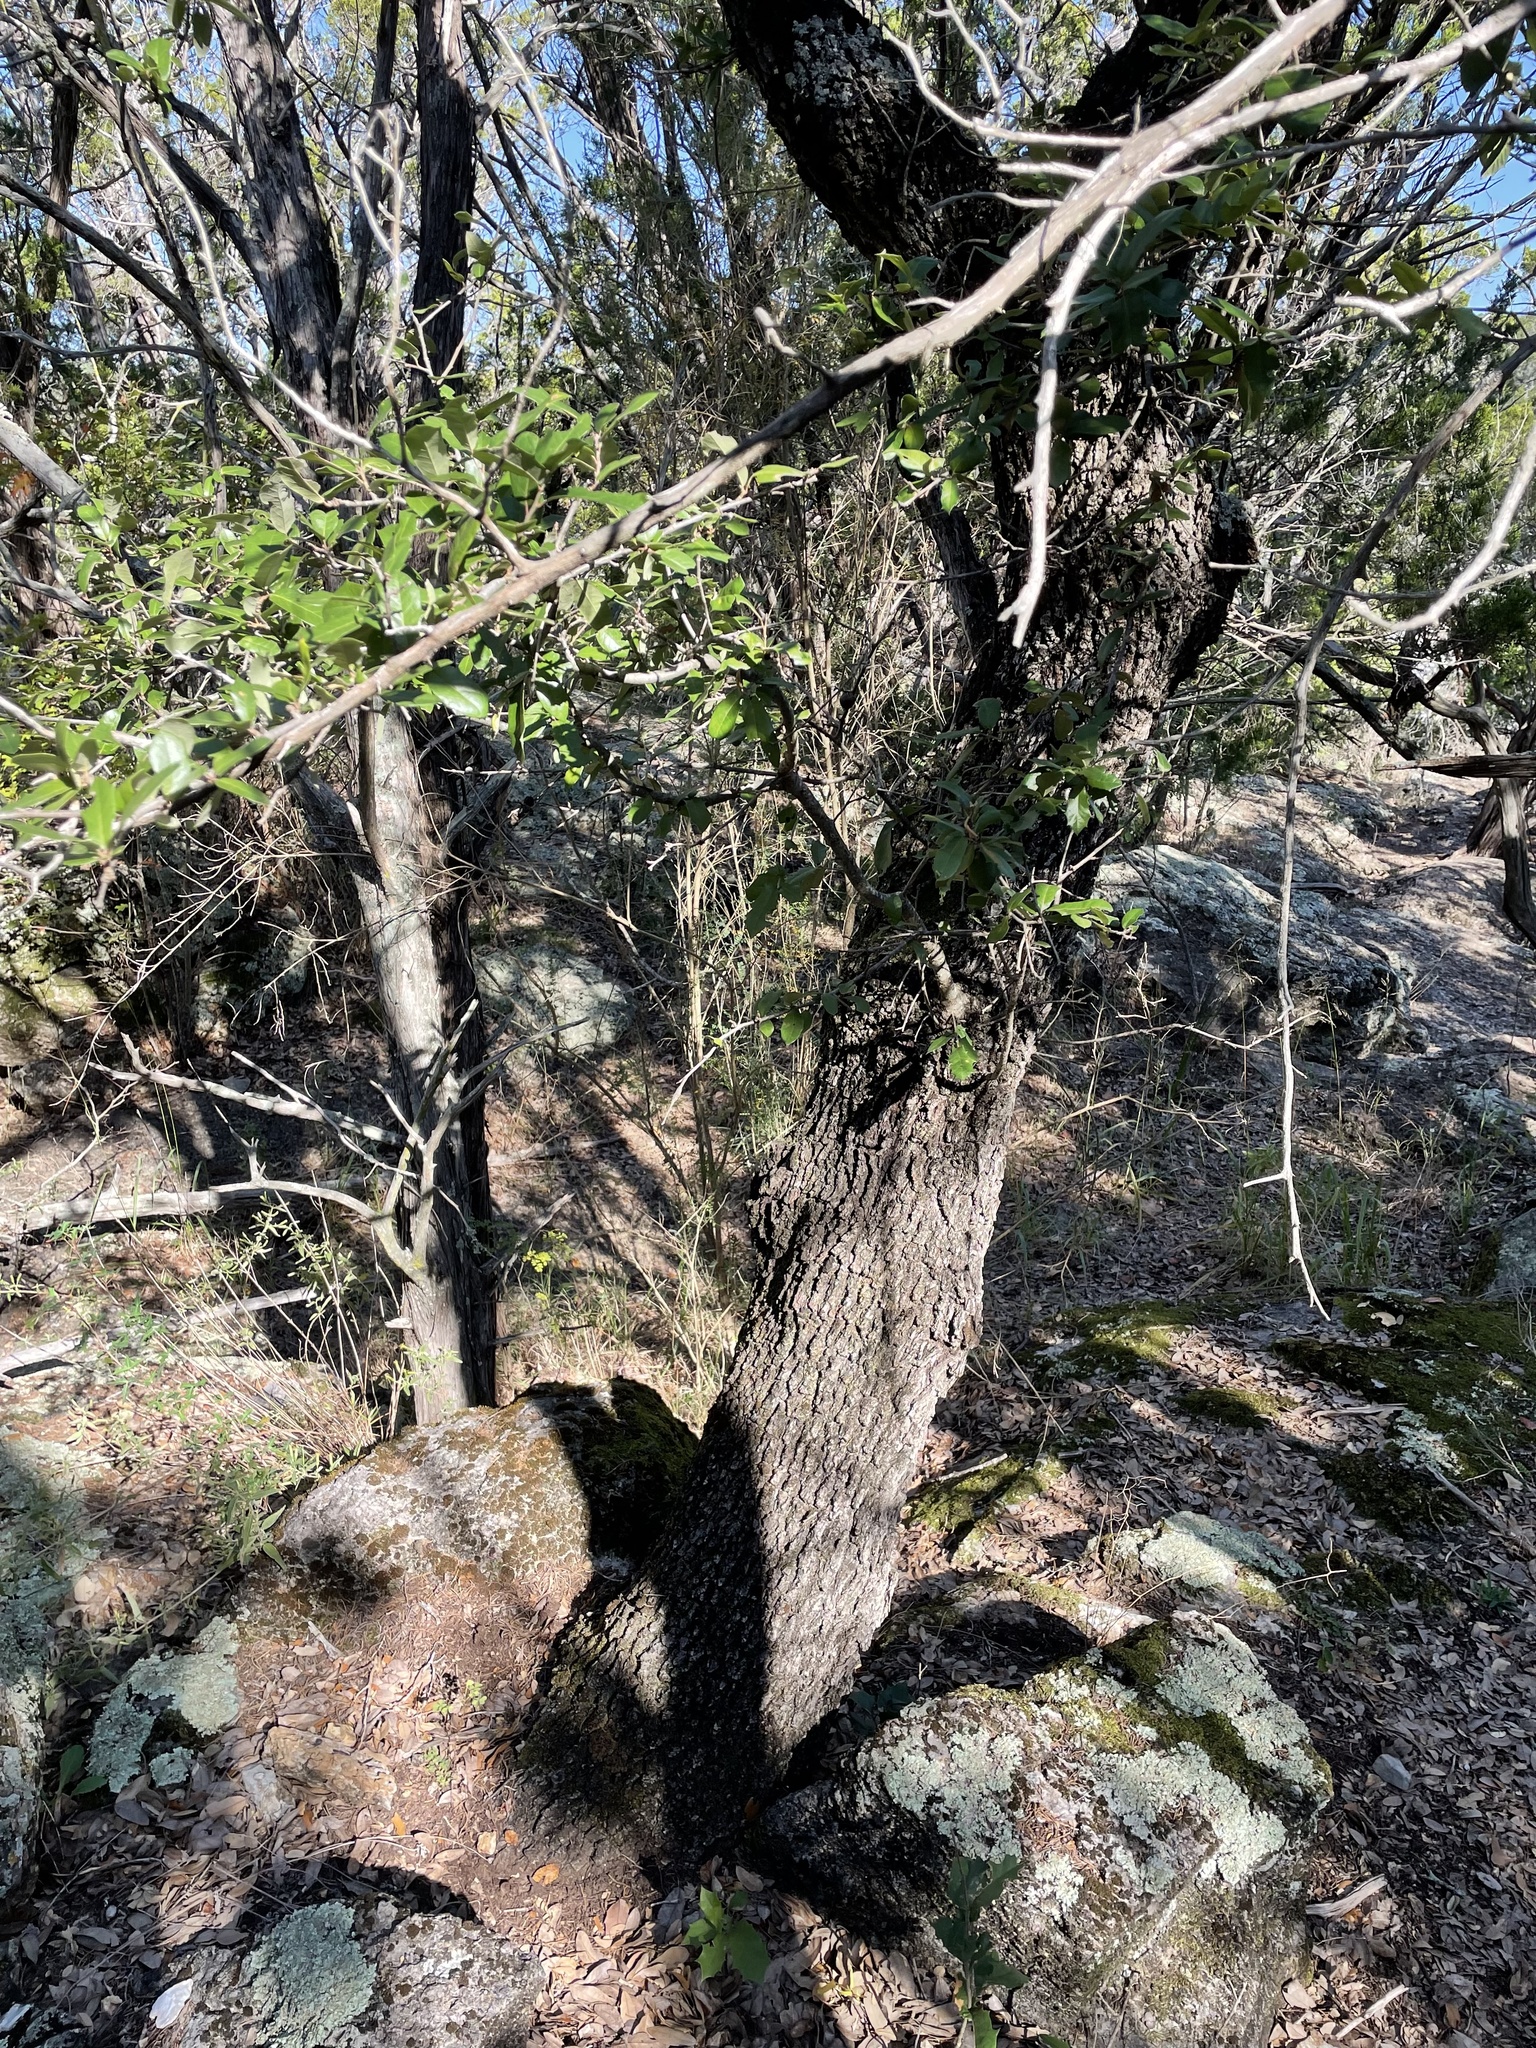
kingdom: Plantae
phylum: Tracheophyta
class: Magnoliopsida
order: Fagales
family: Fagaceae
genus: Quercus
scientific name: Quercus fusiformis
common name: Texas live oak
